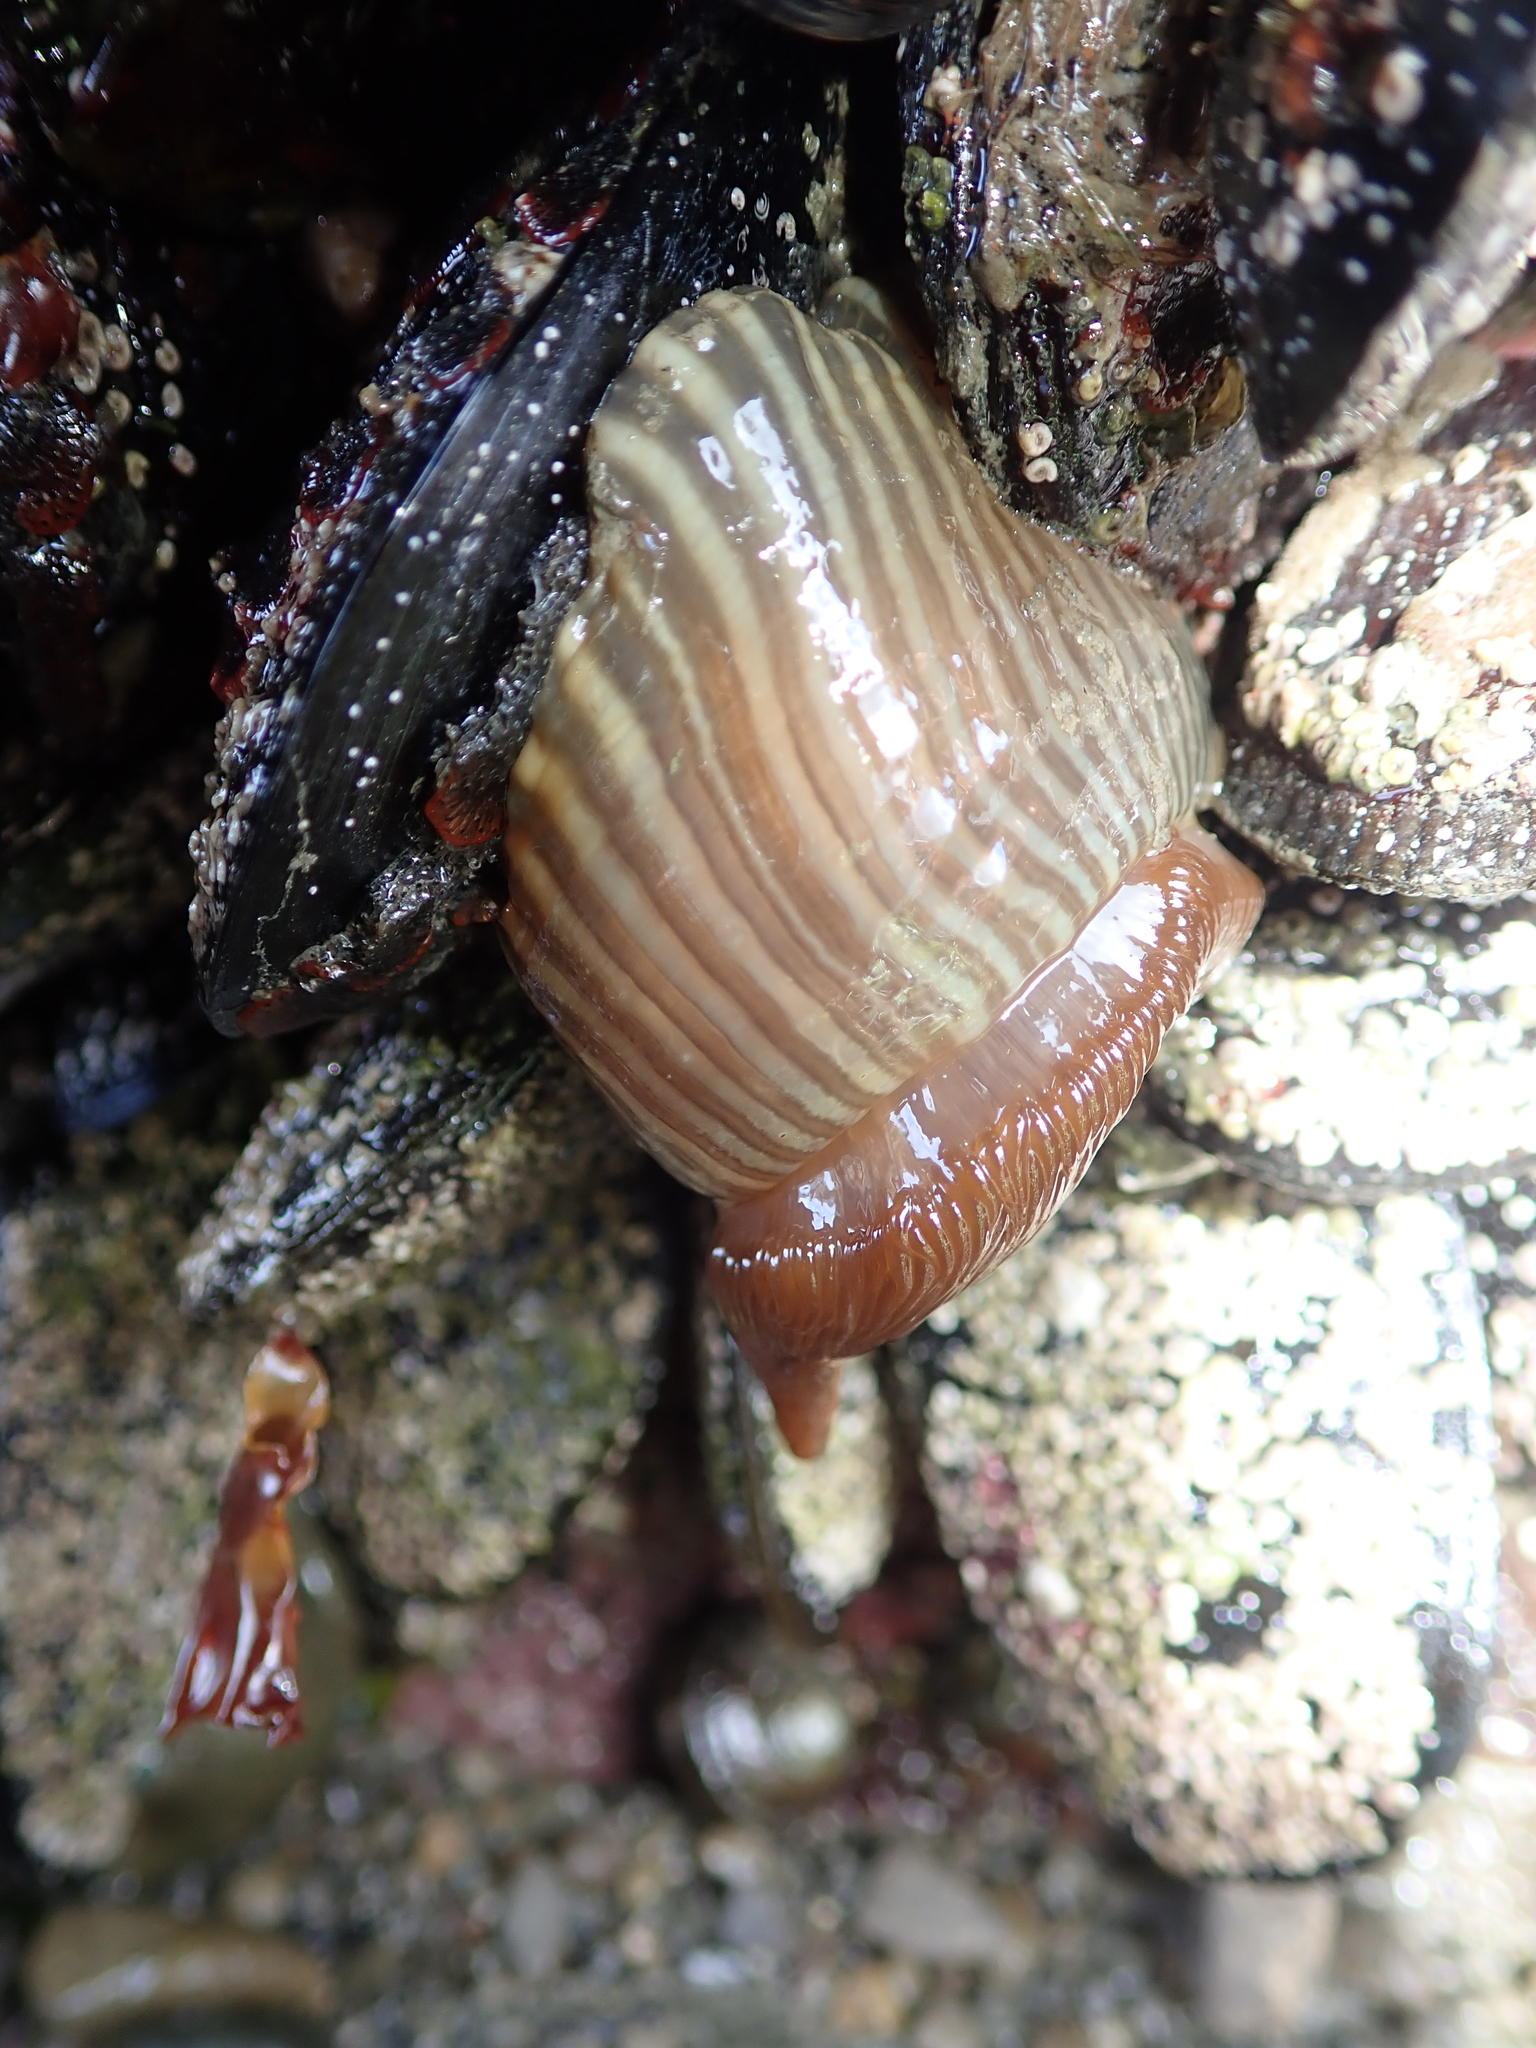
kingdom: Animalia
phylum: Cnidaria
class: Anthozoa
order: Actiniaria
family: Diadumenidae
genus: Diadumene
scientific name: Diadumene neozelanica
